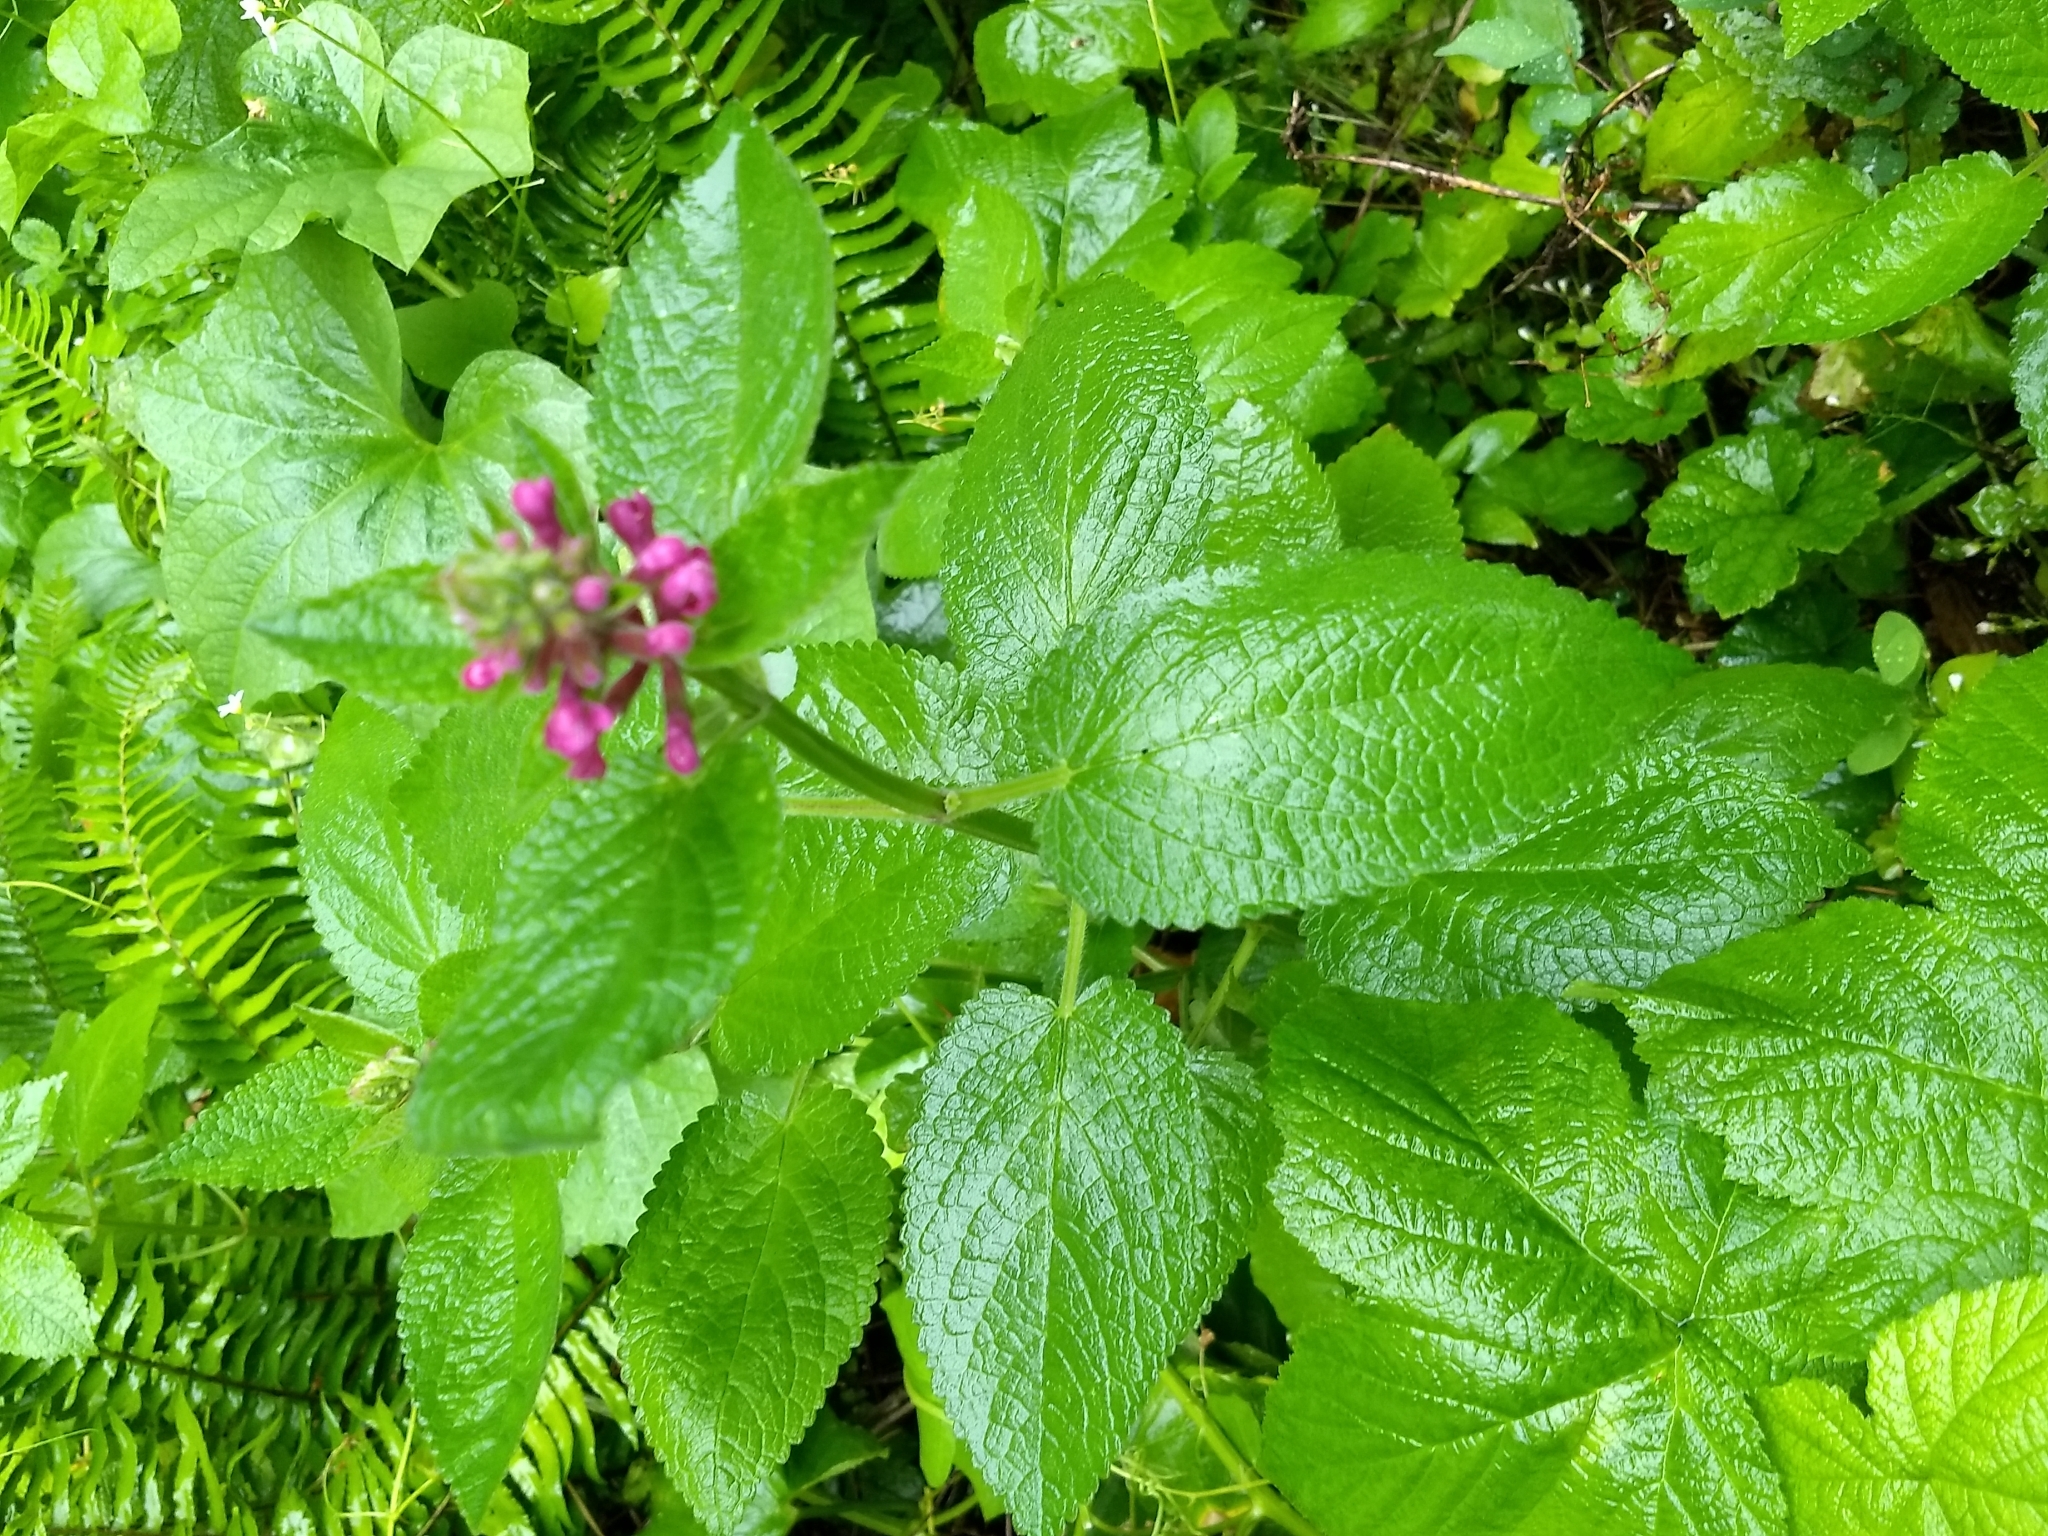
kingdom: Plantae
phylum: Tracheophyta
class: Magnoliopsida
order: Lamiales
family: Lamiaceae
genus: Stachys
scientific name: Stachys chamissonis
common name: Coastal hedge-nettle
